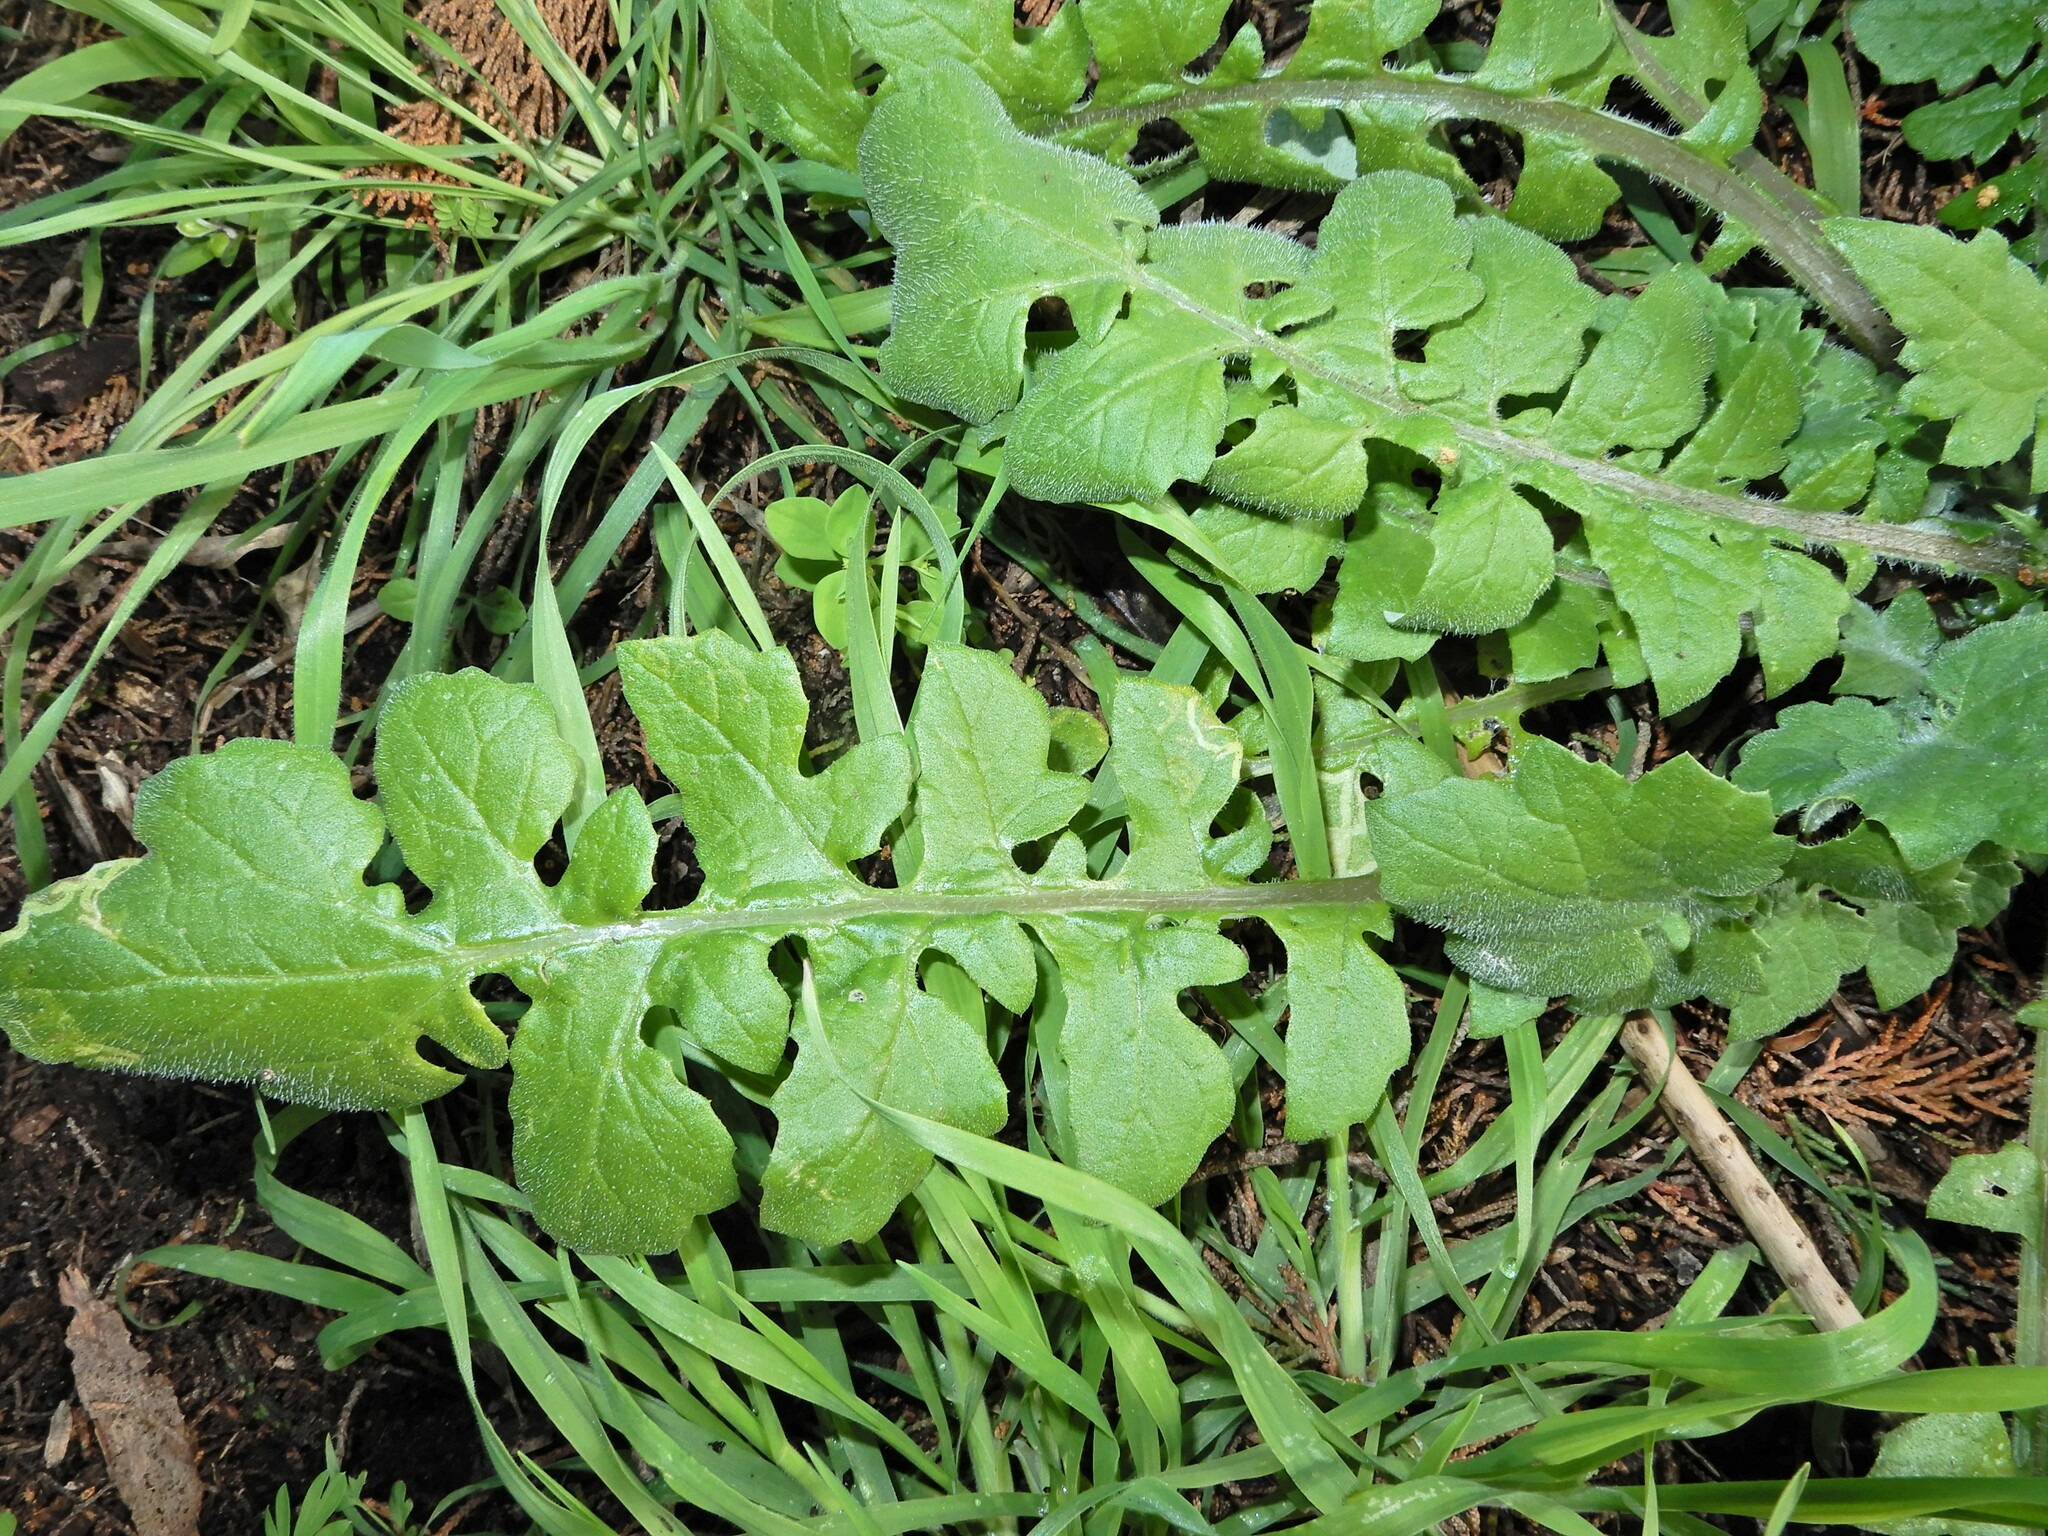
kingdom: Plantae
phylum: Tracheophyta
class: Magnoliopsida
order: Asterales
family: Asteraceae
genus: Arctotheca
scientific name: Arctotheca calendula
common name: Capeweed
